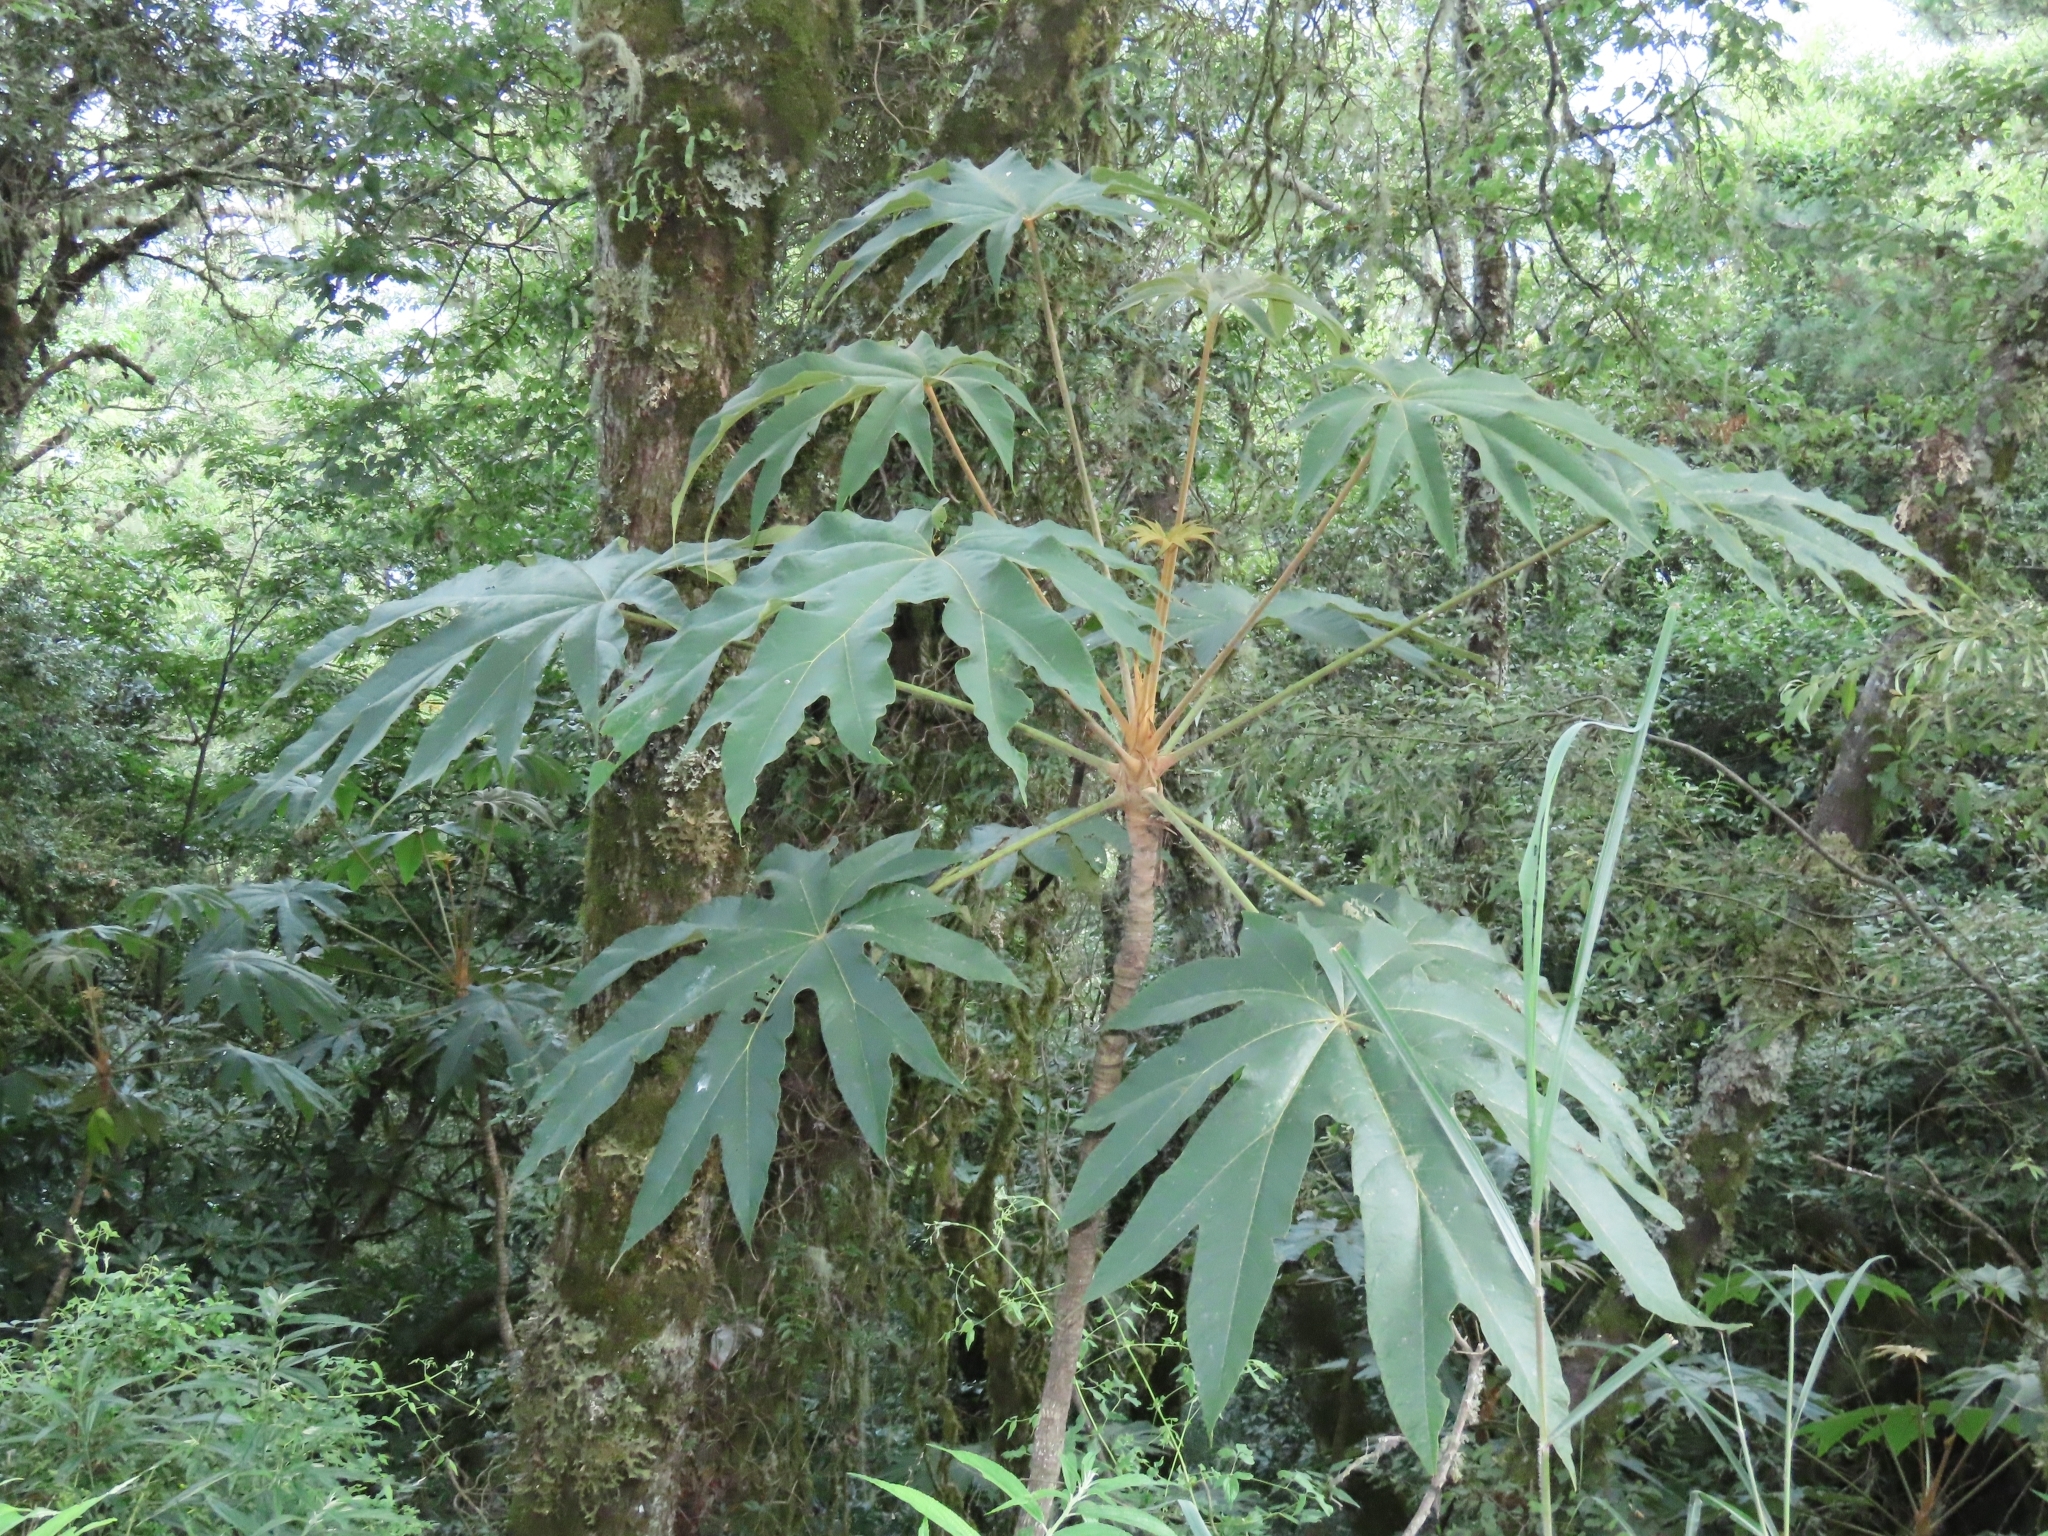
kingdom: Plantae
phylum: Tracheophyta
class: Magnoliopsida
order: Apiales
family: Araliaceae
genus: Tetrapanax
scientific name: Tetrapanax papyrifer
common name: Rice-paper plant
